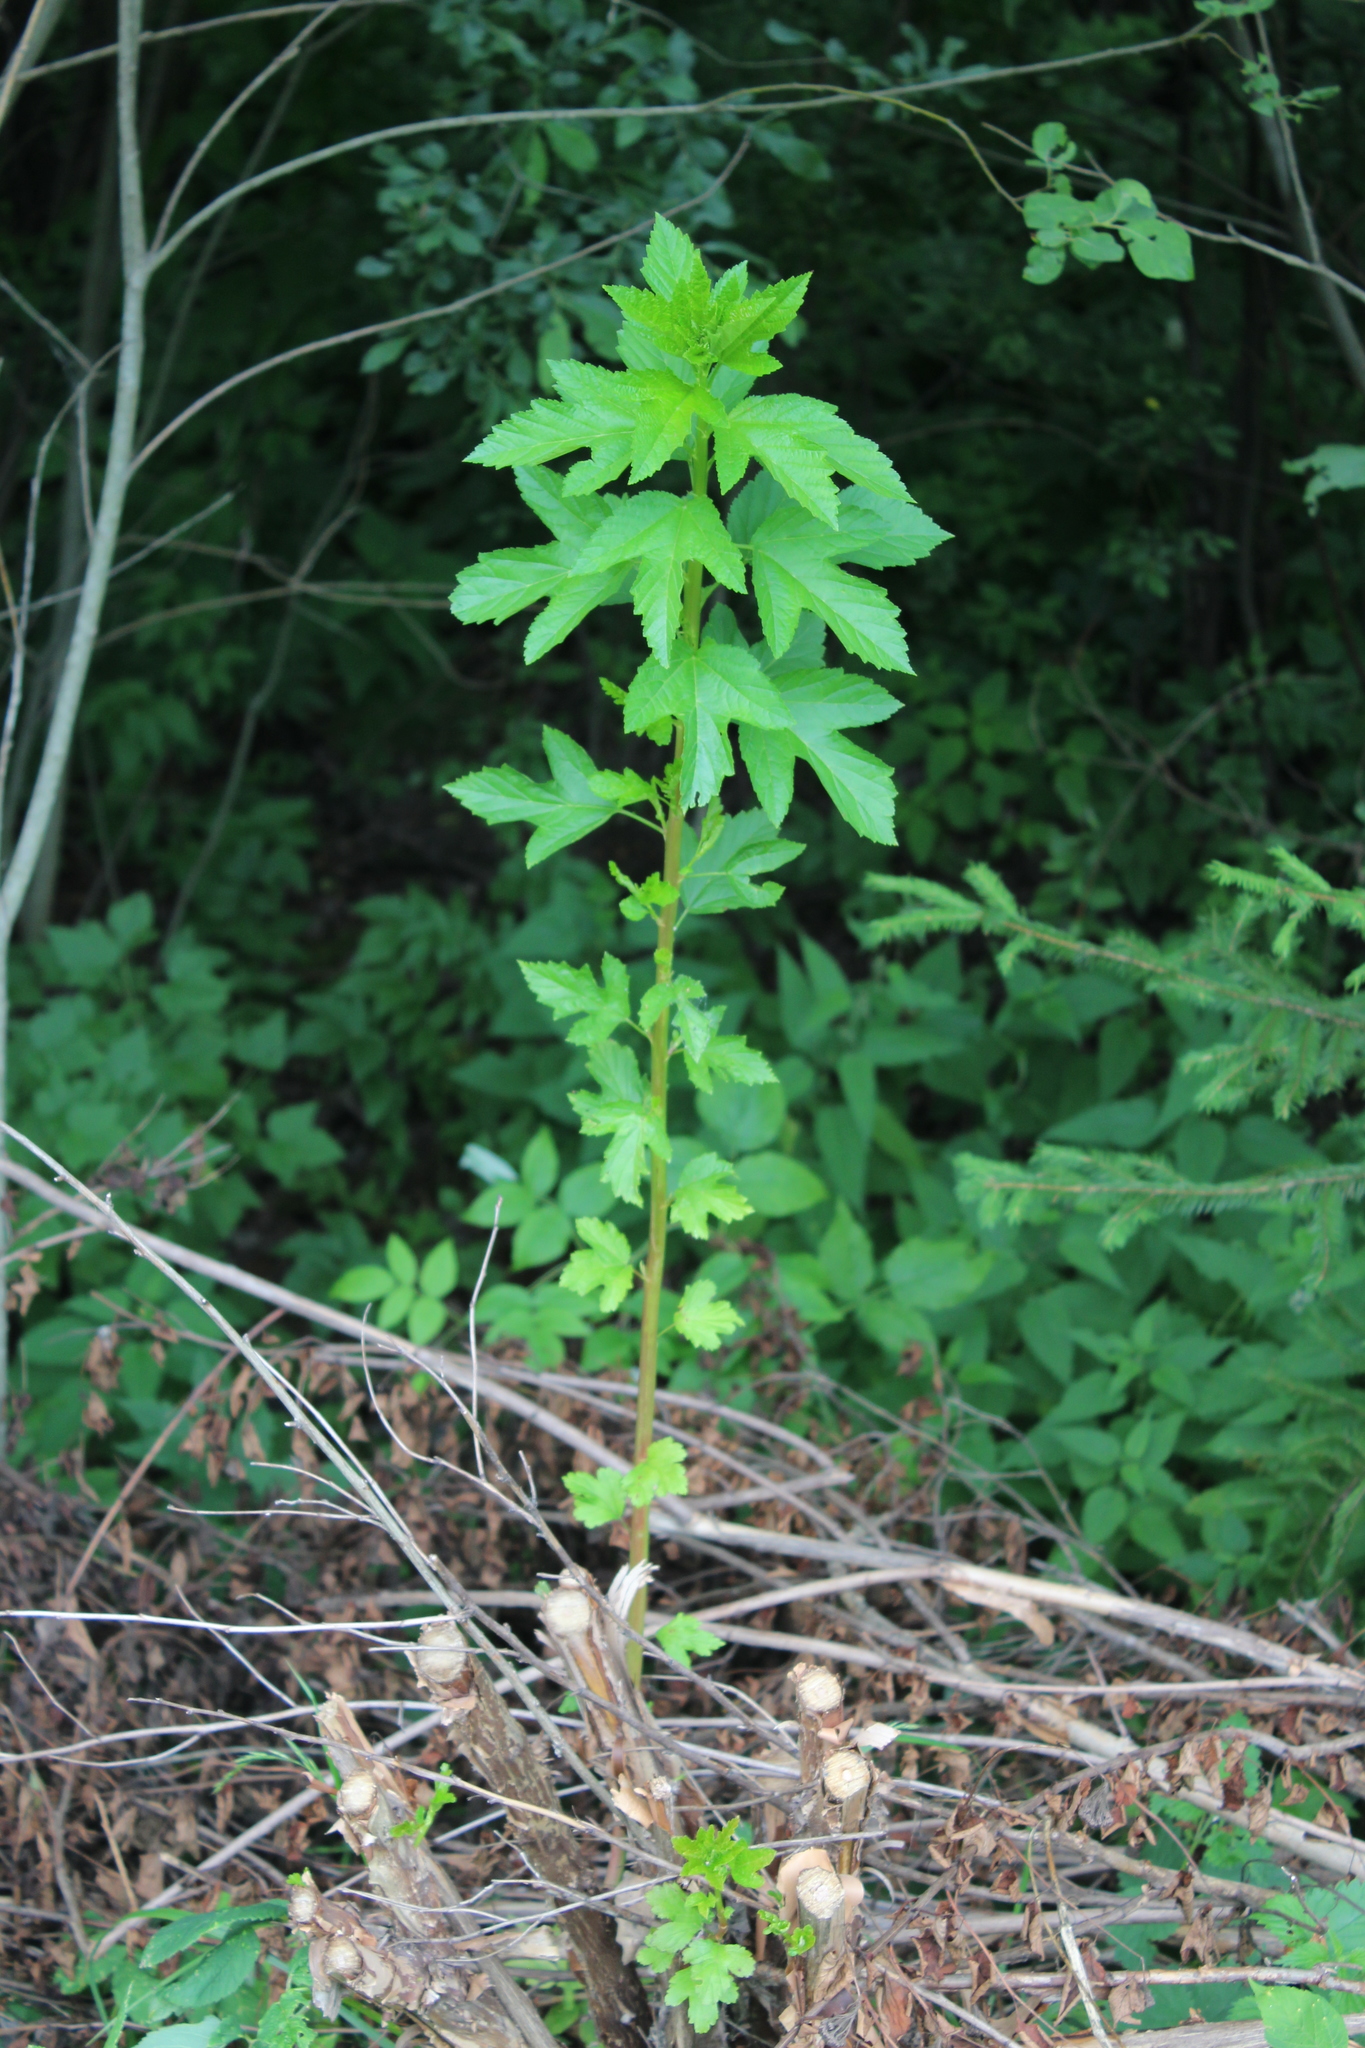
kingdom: Plantae
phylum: Tracheophyta
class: Magnoliopsida
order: Rosales
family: Rosaceae
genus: Physocarpus
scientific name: Physocarpus opulifolius
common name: Ninebark
